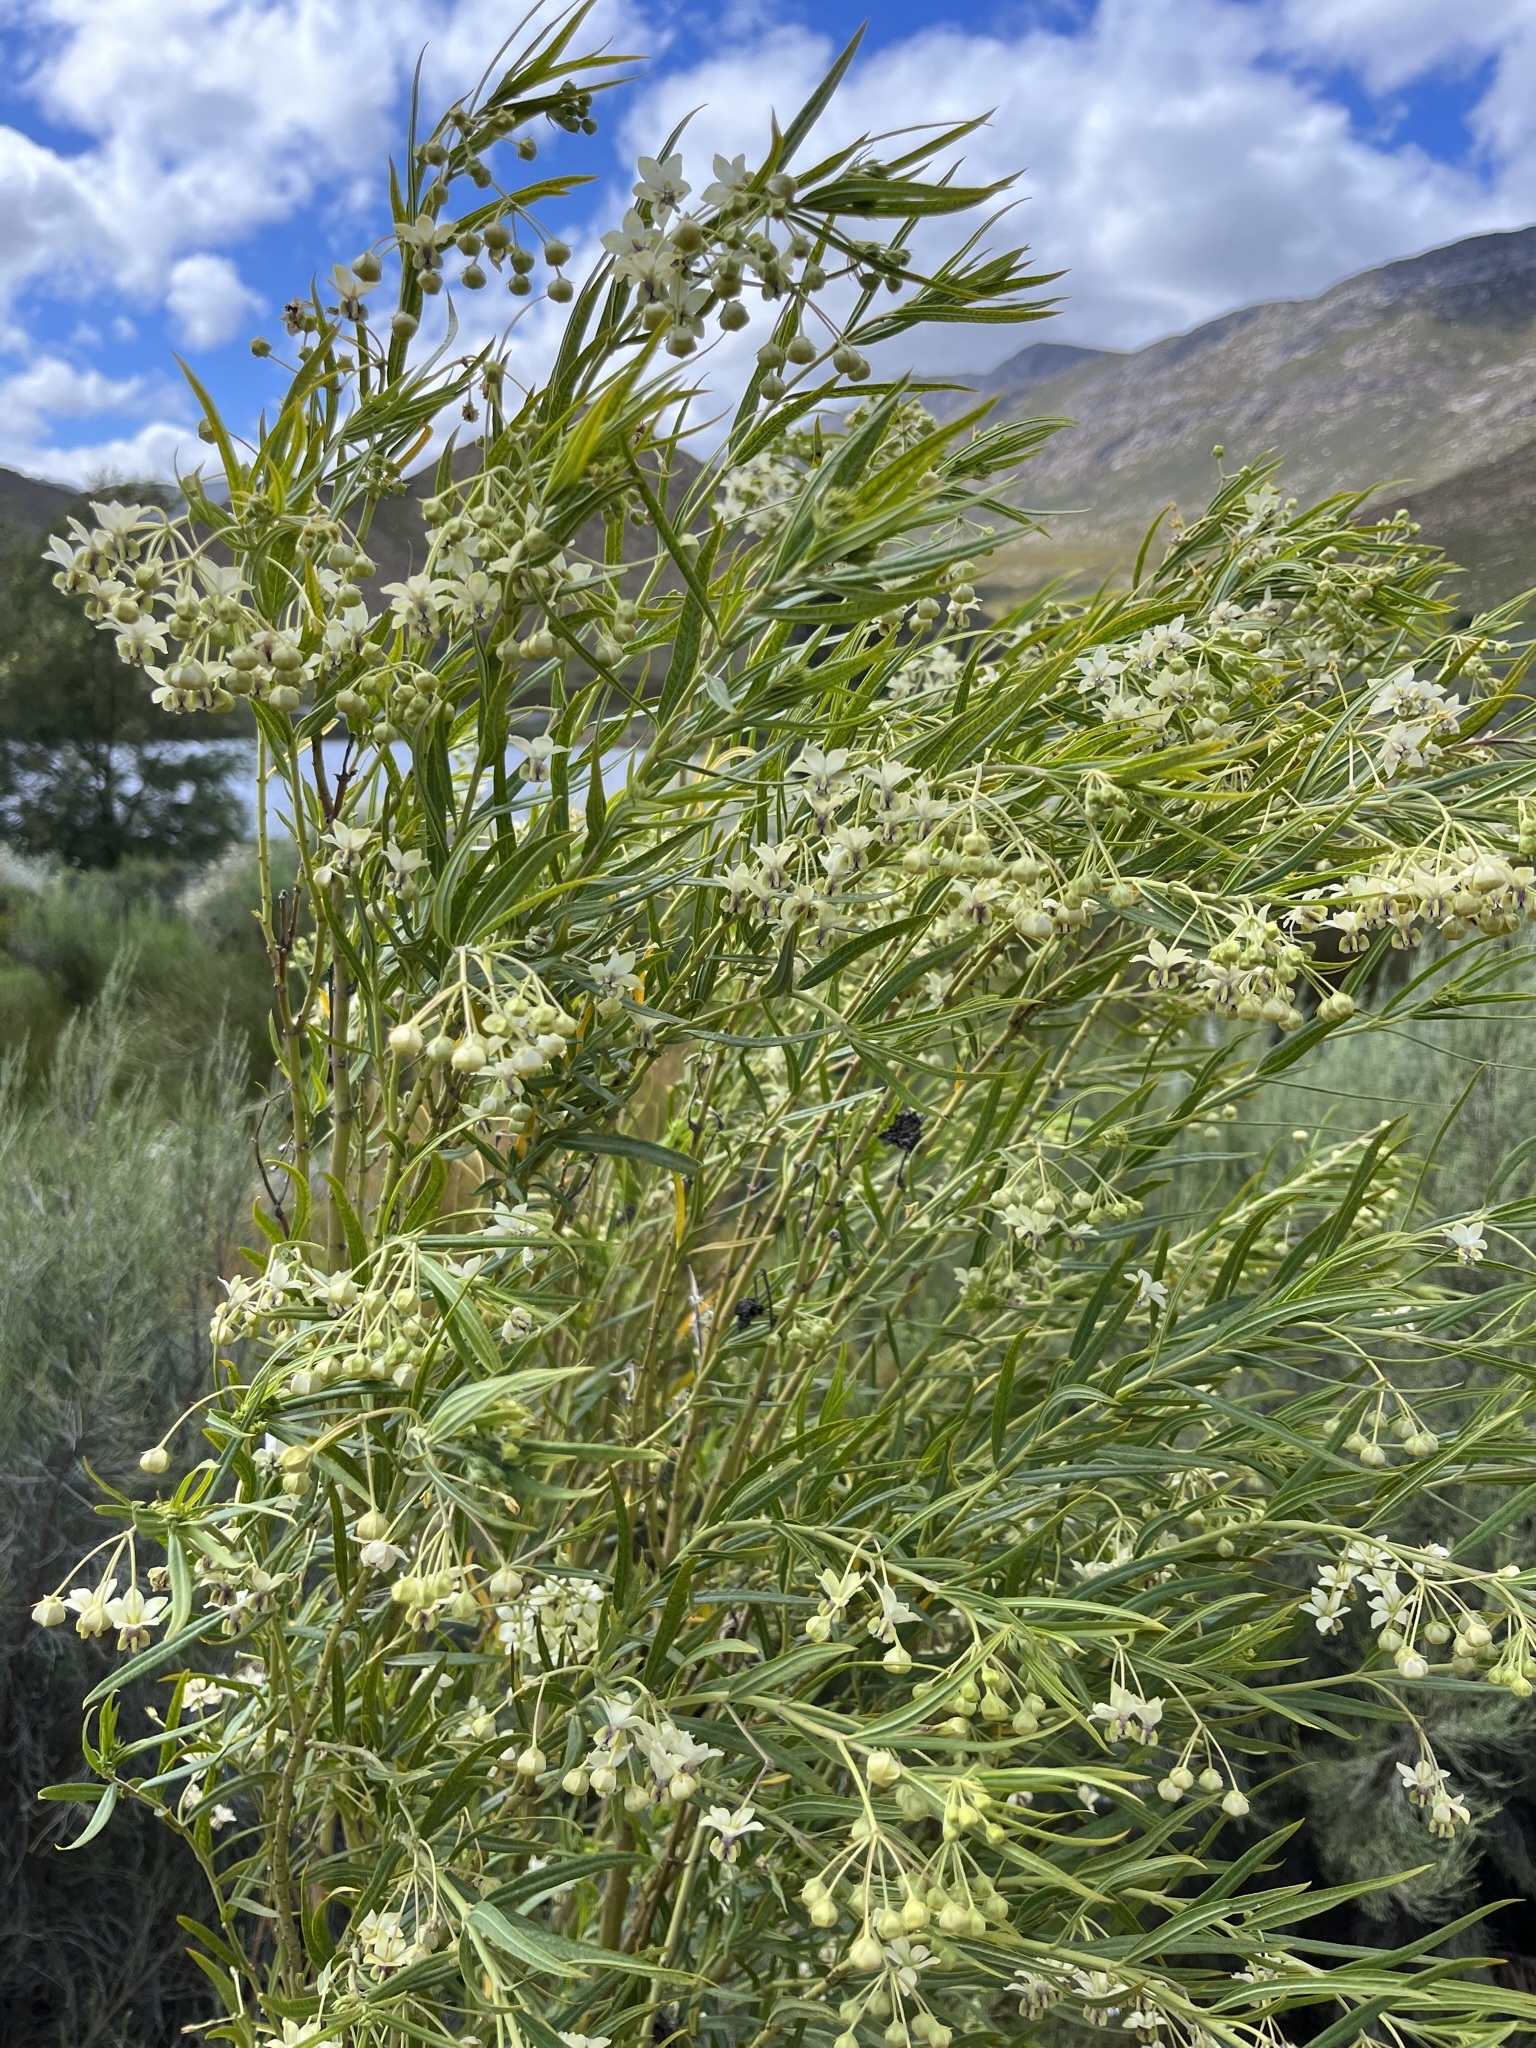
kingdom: Plantae
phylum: Tracheophyta
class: Magnoliopsida
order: Gentianales
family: Apocynaceae
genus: Gomphocarpus
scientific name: Gomphocarpus fruticosus
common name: Milkweed
